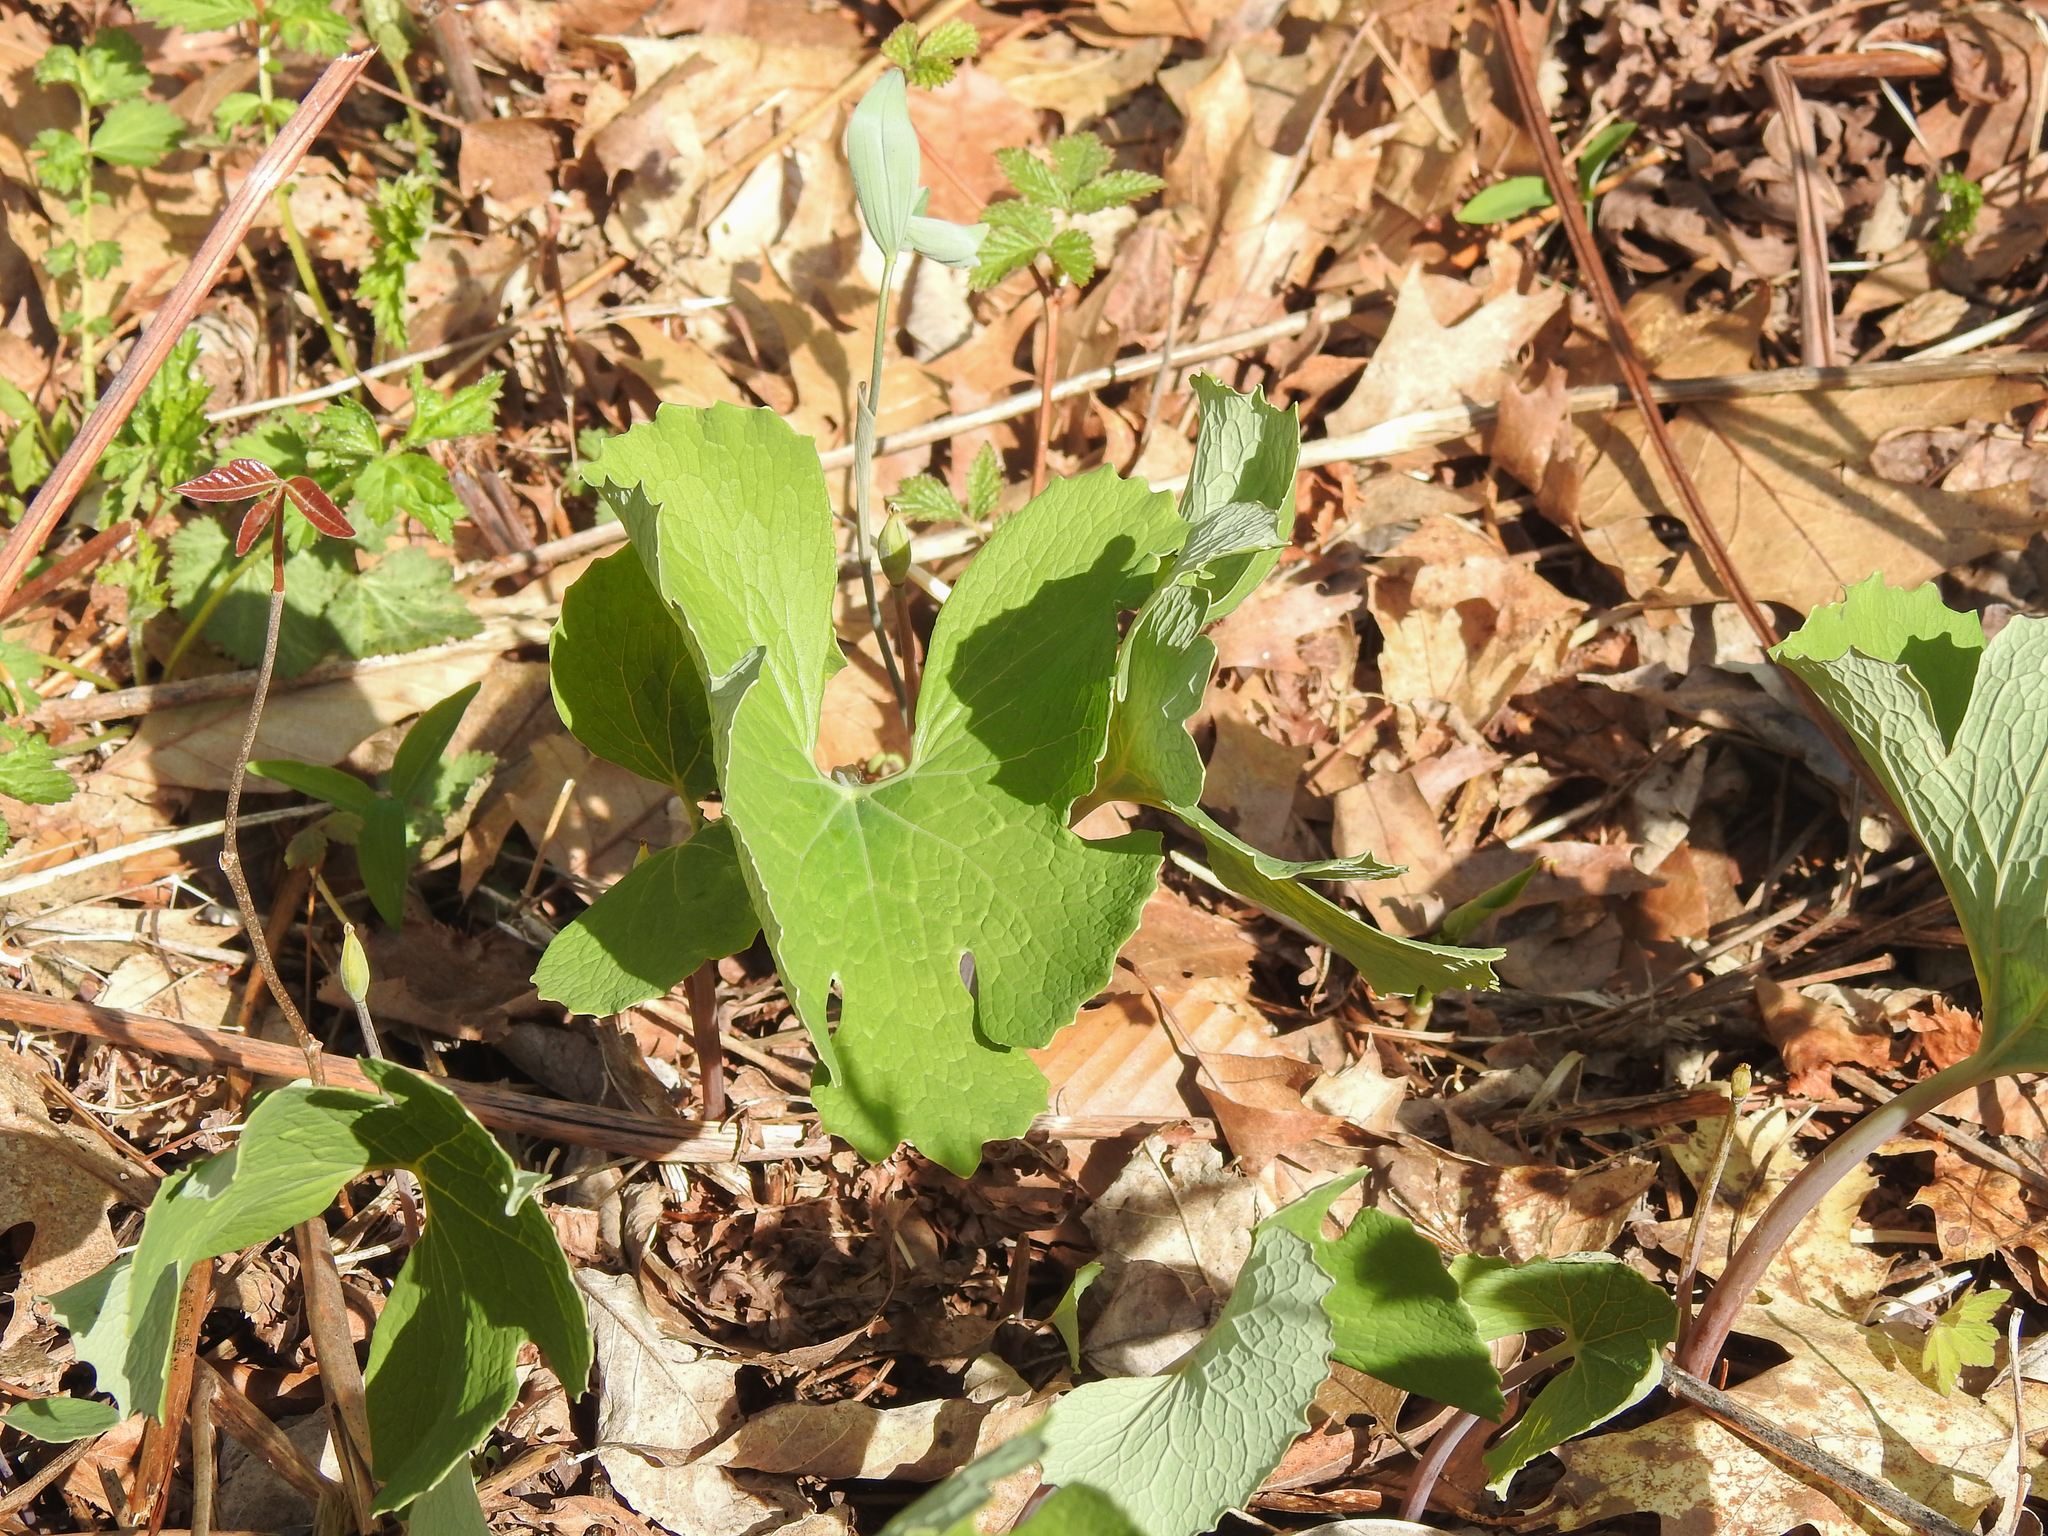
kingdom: Plantae
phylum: Tracheophyta
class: Magnoliopsida
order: Ranunculales
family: Papaveraceae
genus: Sanguinaria
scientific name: Sanguinaria canadensis
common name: Bloodroot
